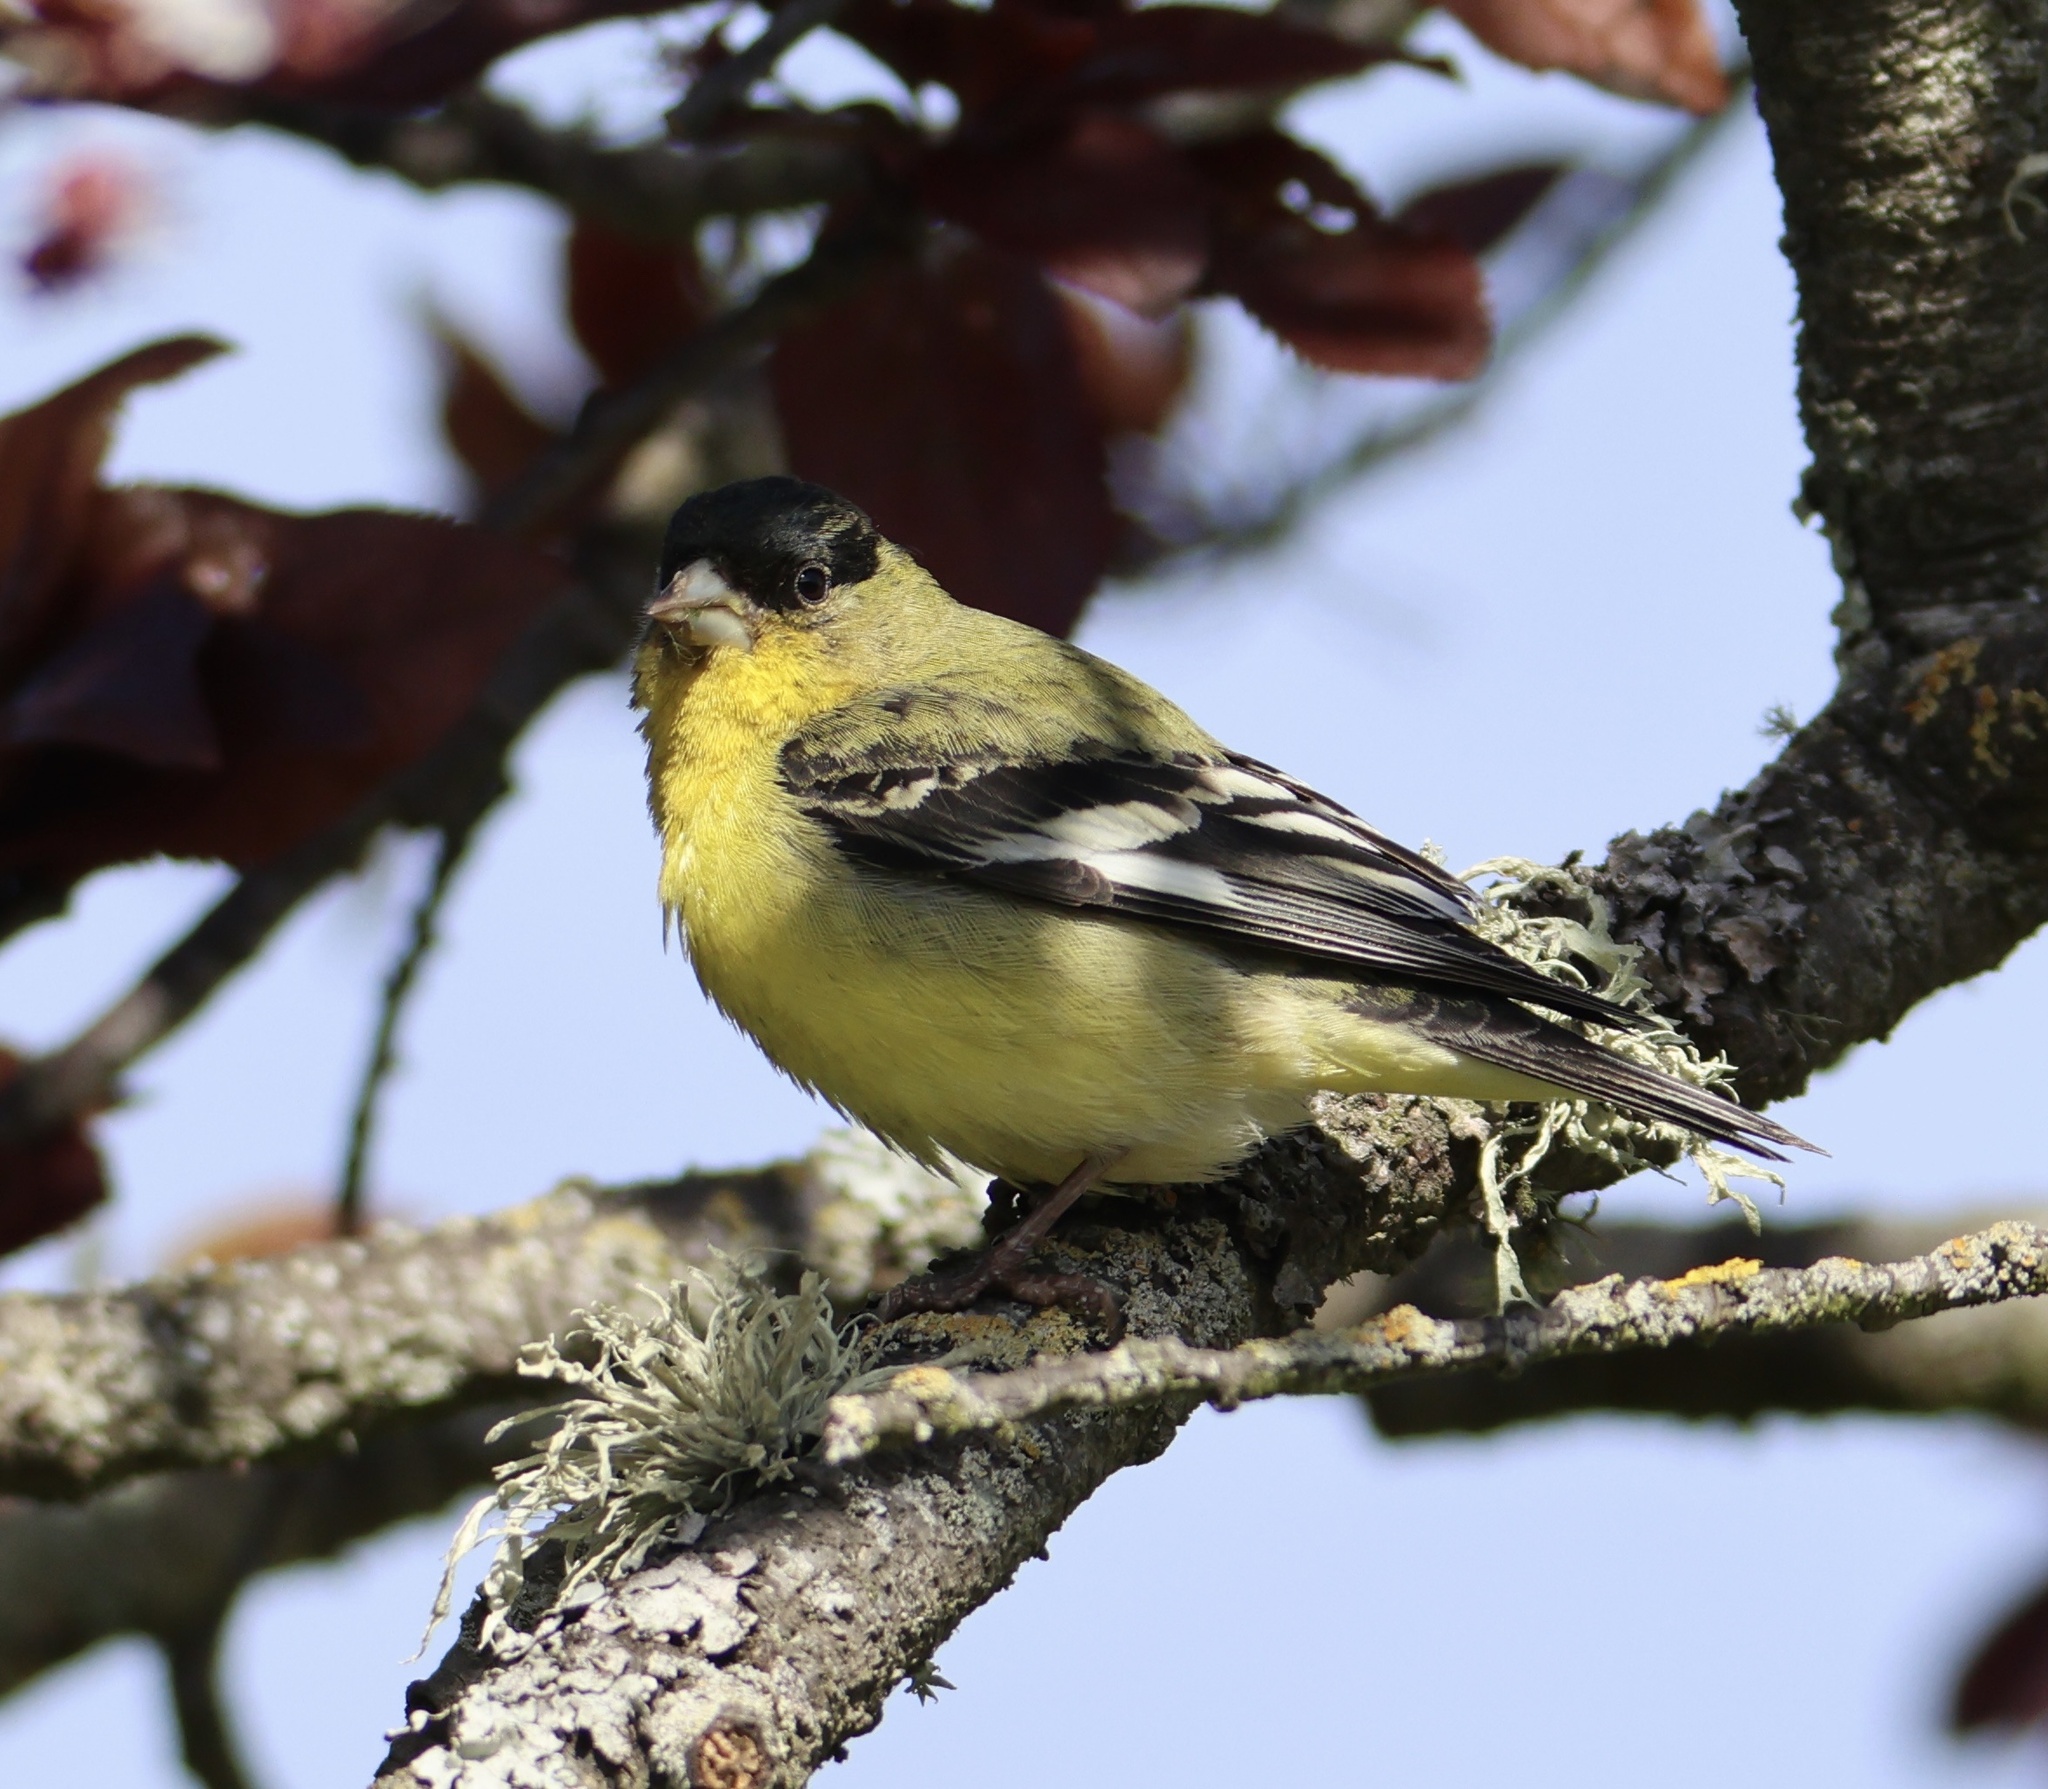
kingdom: Animalia
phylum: Chordata
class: Aves
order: Passeriformes
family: Fringillidae
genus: Spinus
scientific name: Spinus psaltria
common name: Lesser goldfinch
